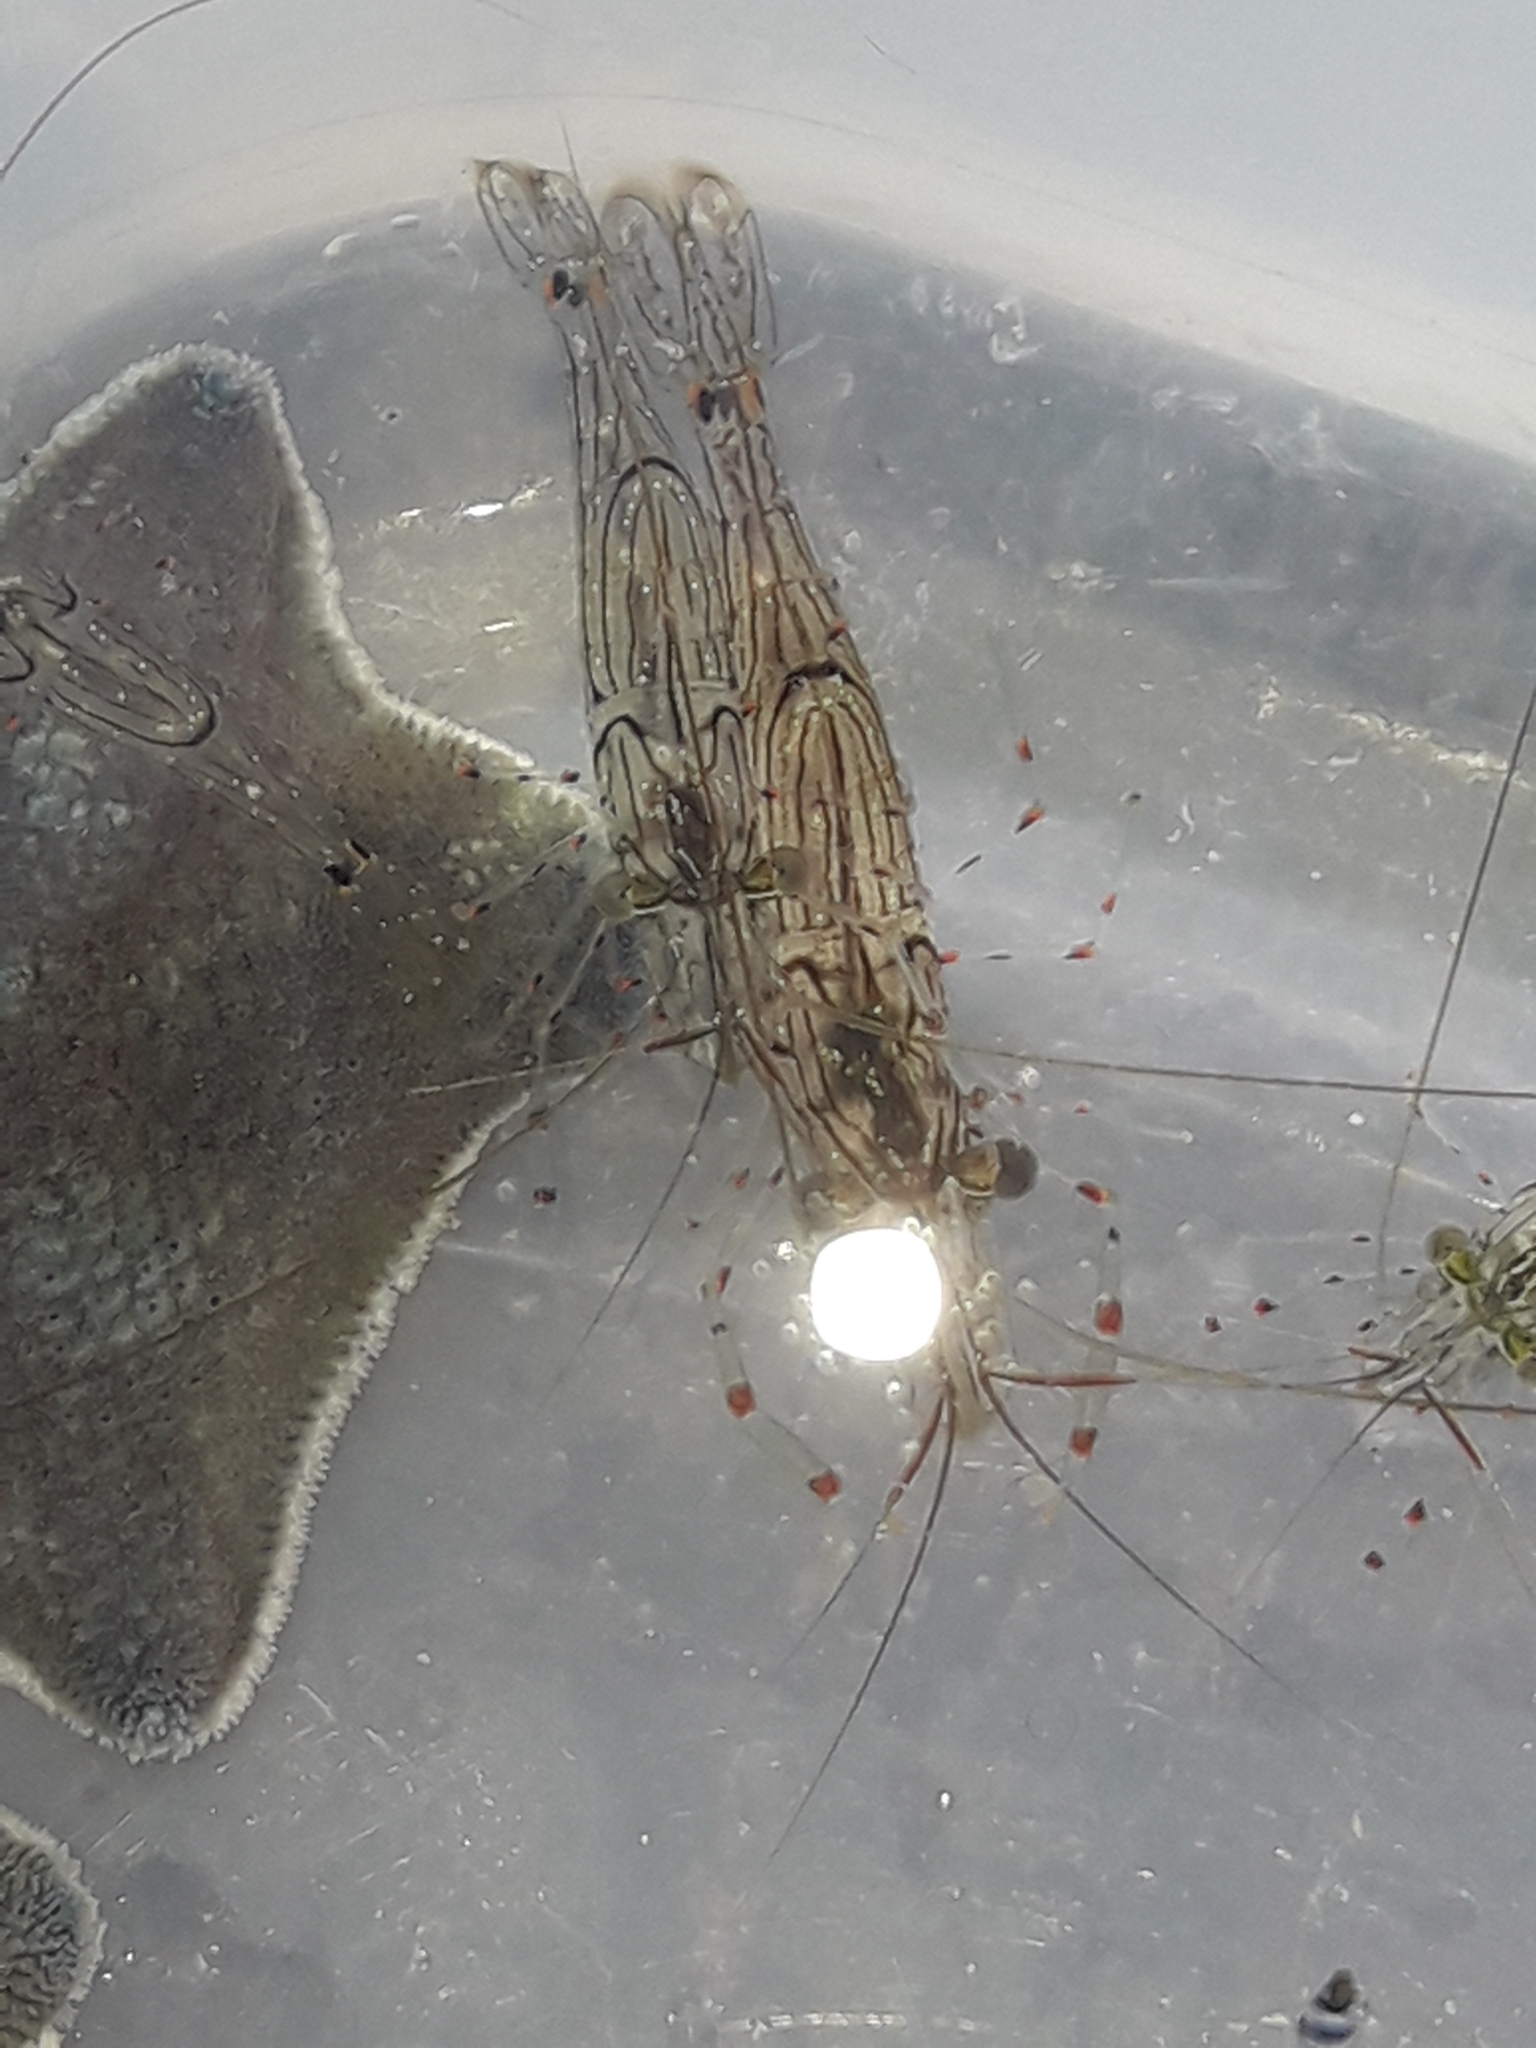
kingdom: Animalia
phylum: Arthropoda
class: Malacostraca
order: Decapoda
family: Palaemonidae
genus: Palaemon
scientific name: Palaemon affinis
